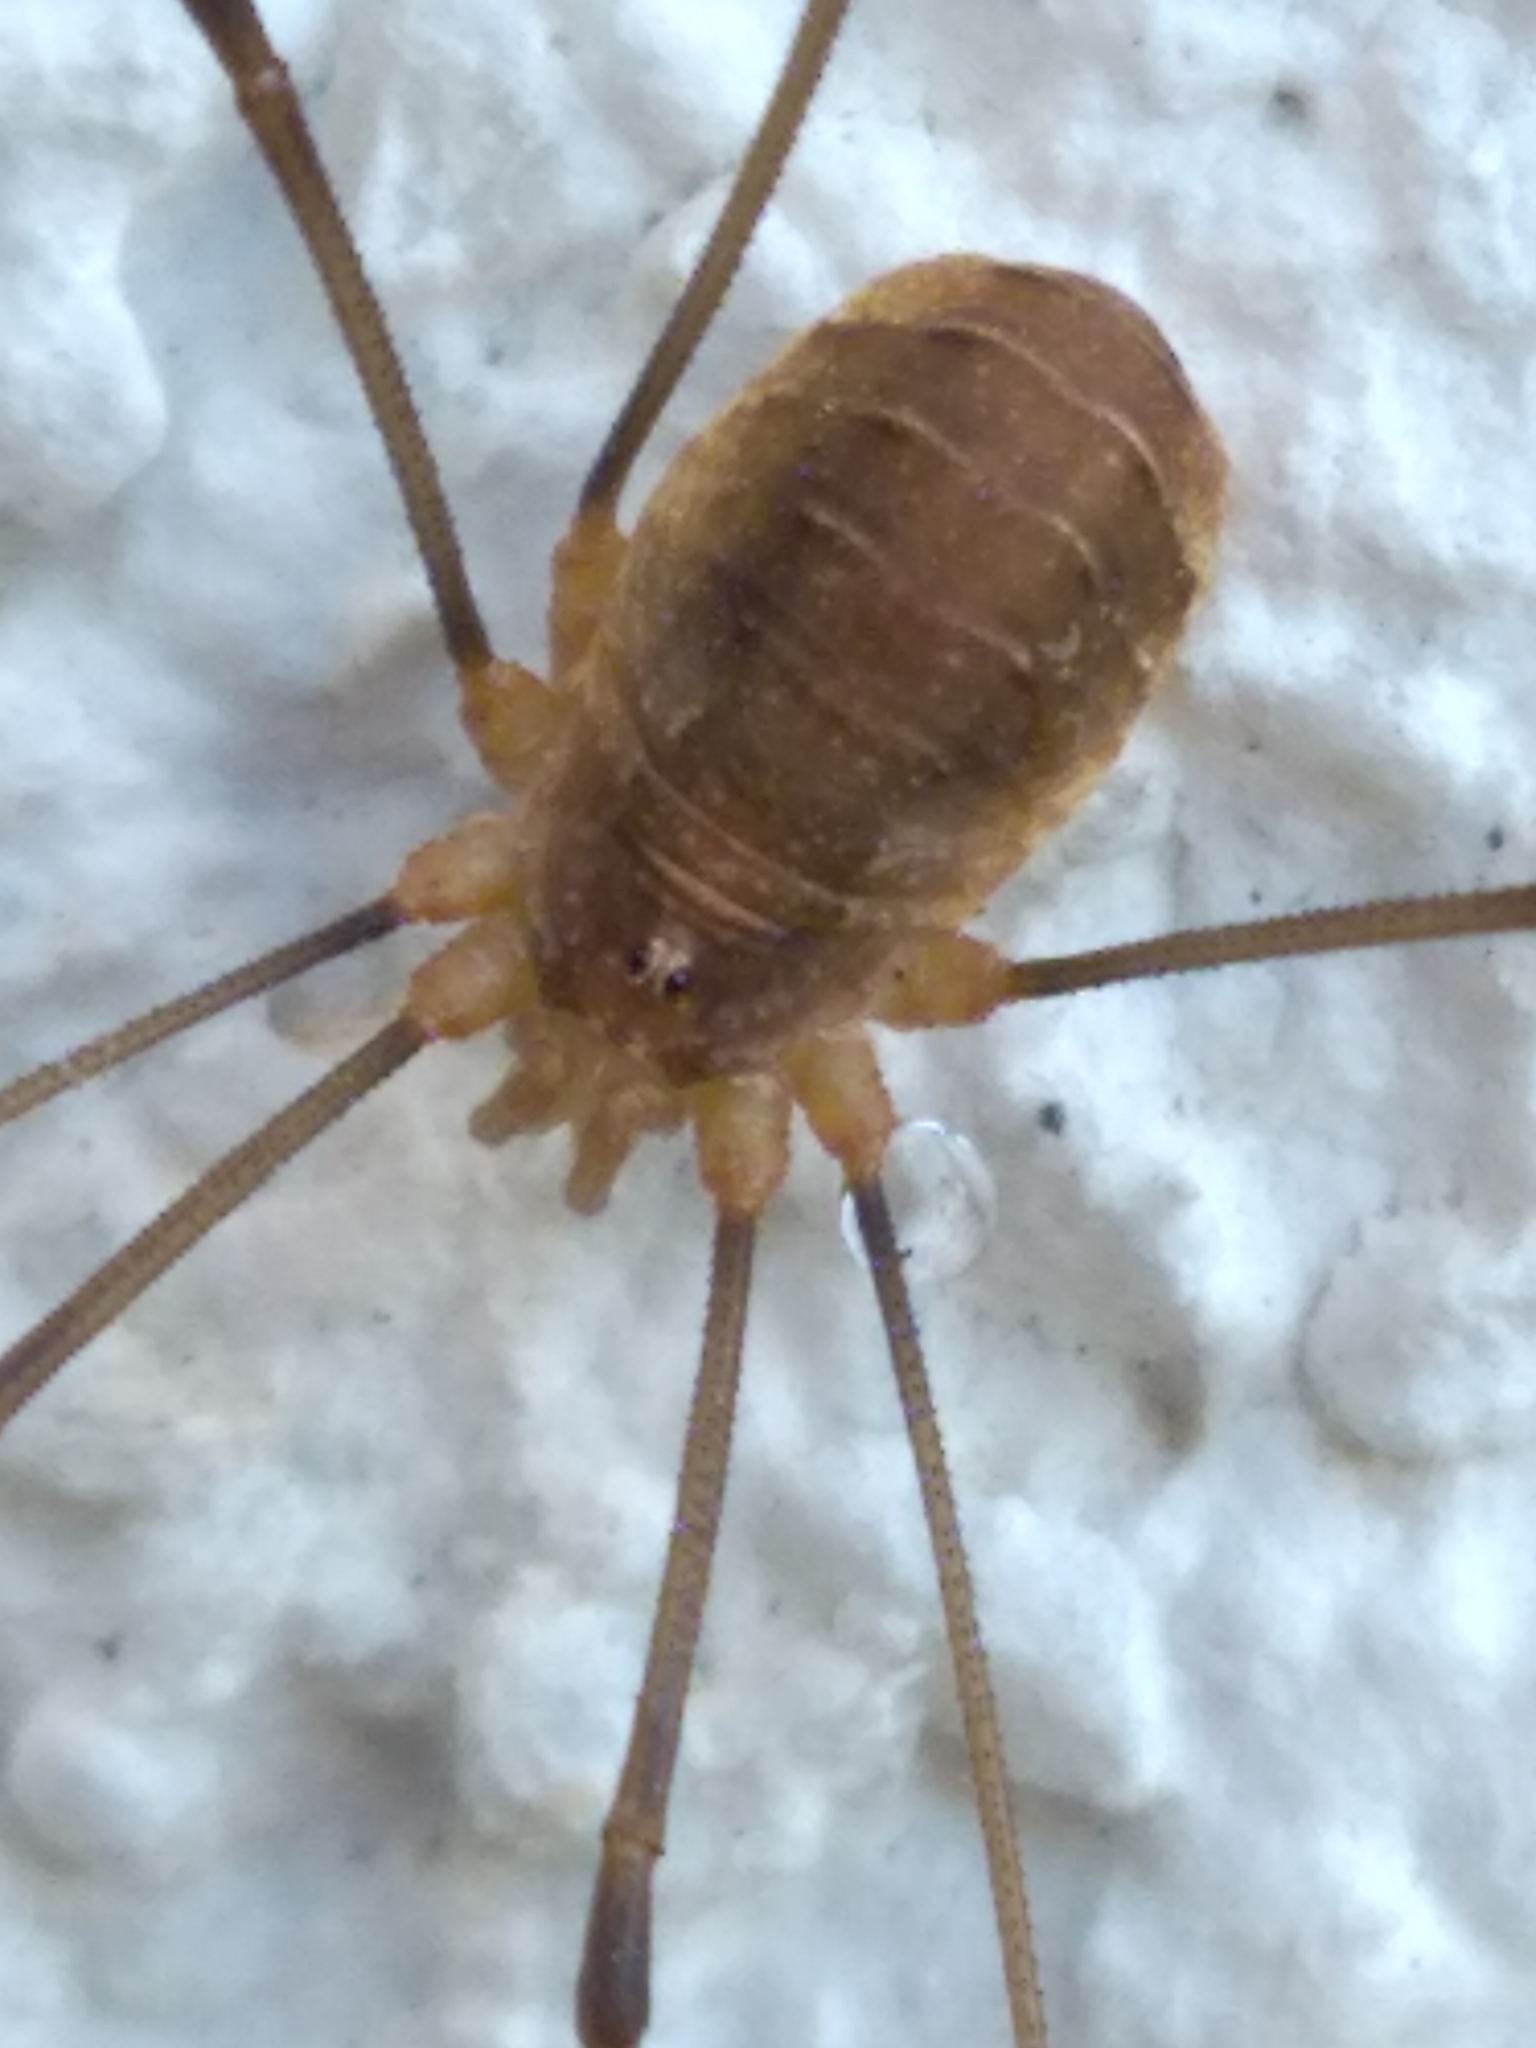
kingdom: Animalia
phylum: Arthropoda
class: Arachnida
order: Opiliones
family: Phalangiidae
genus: Opilio
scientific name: Opilio canestrinii
